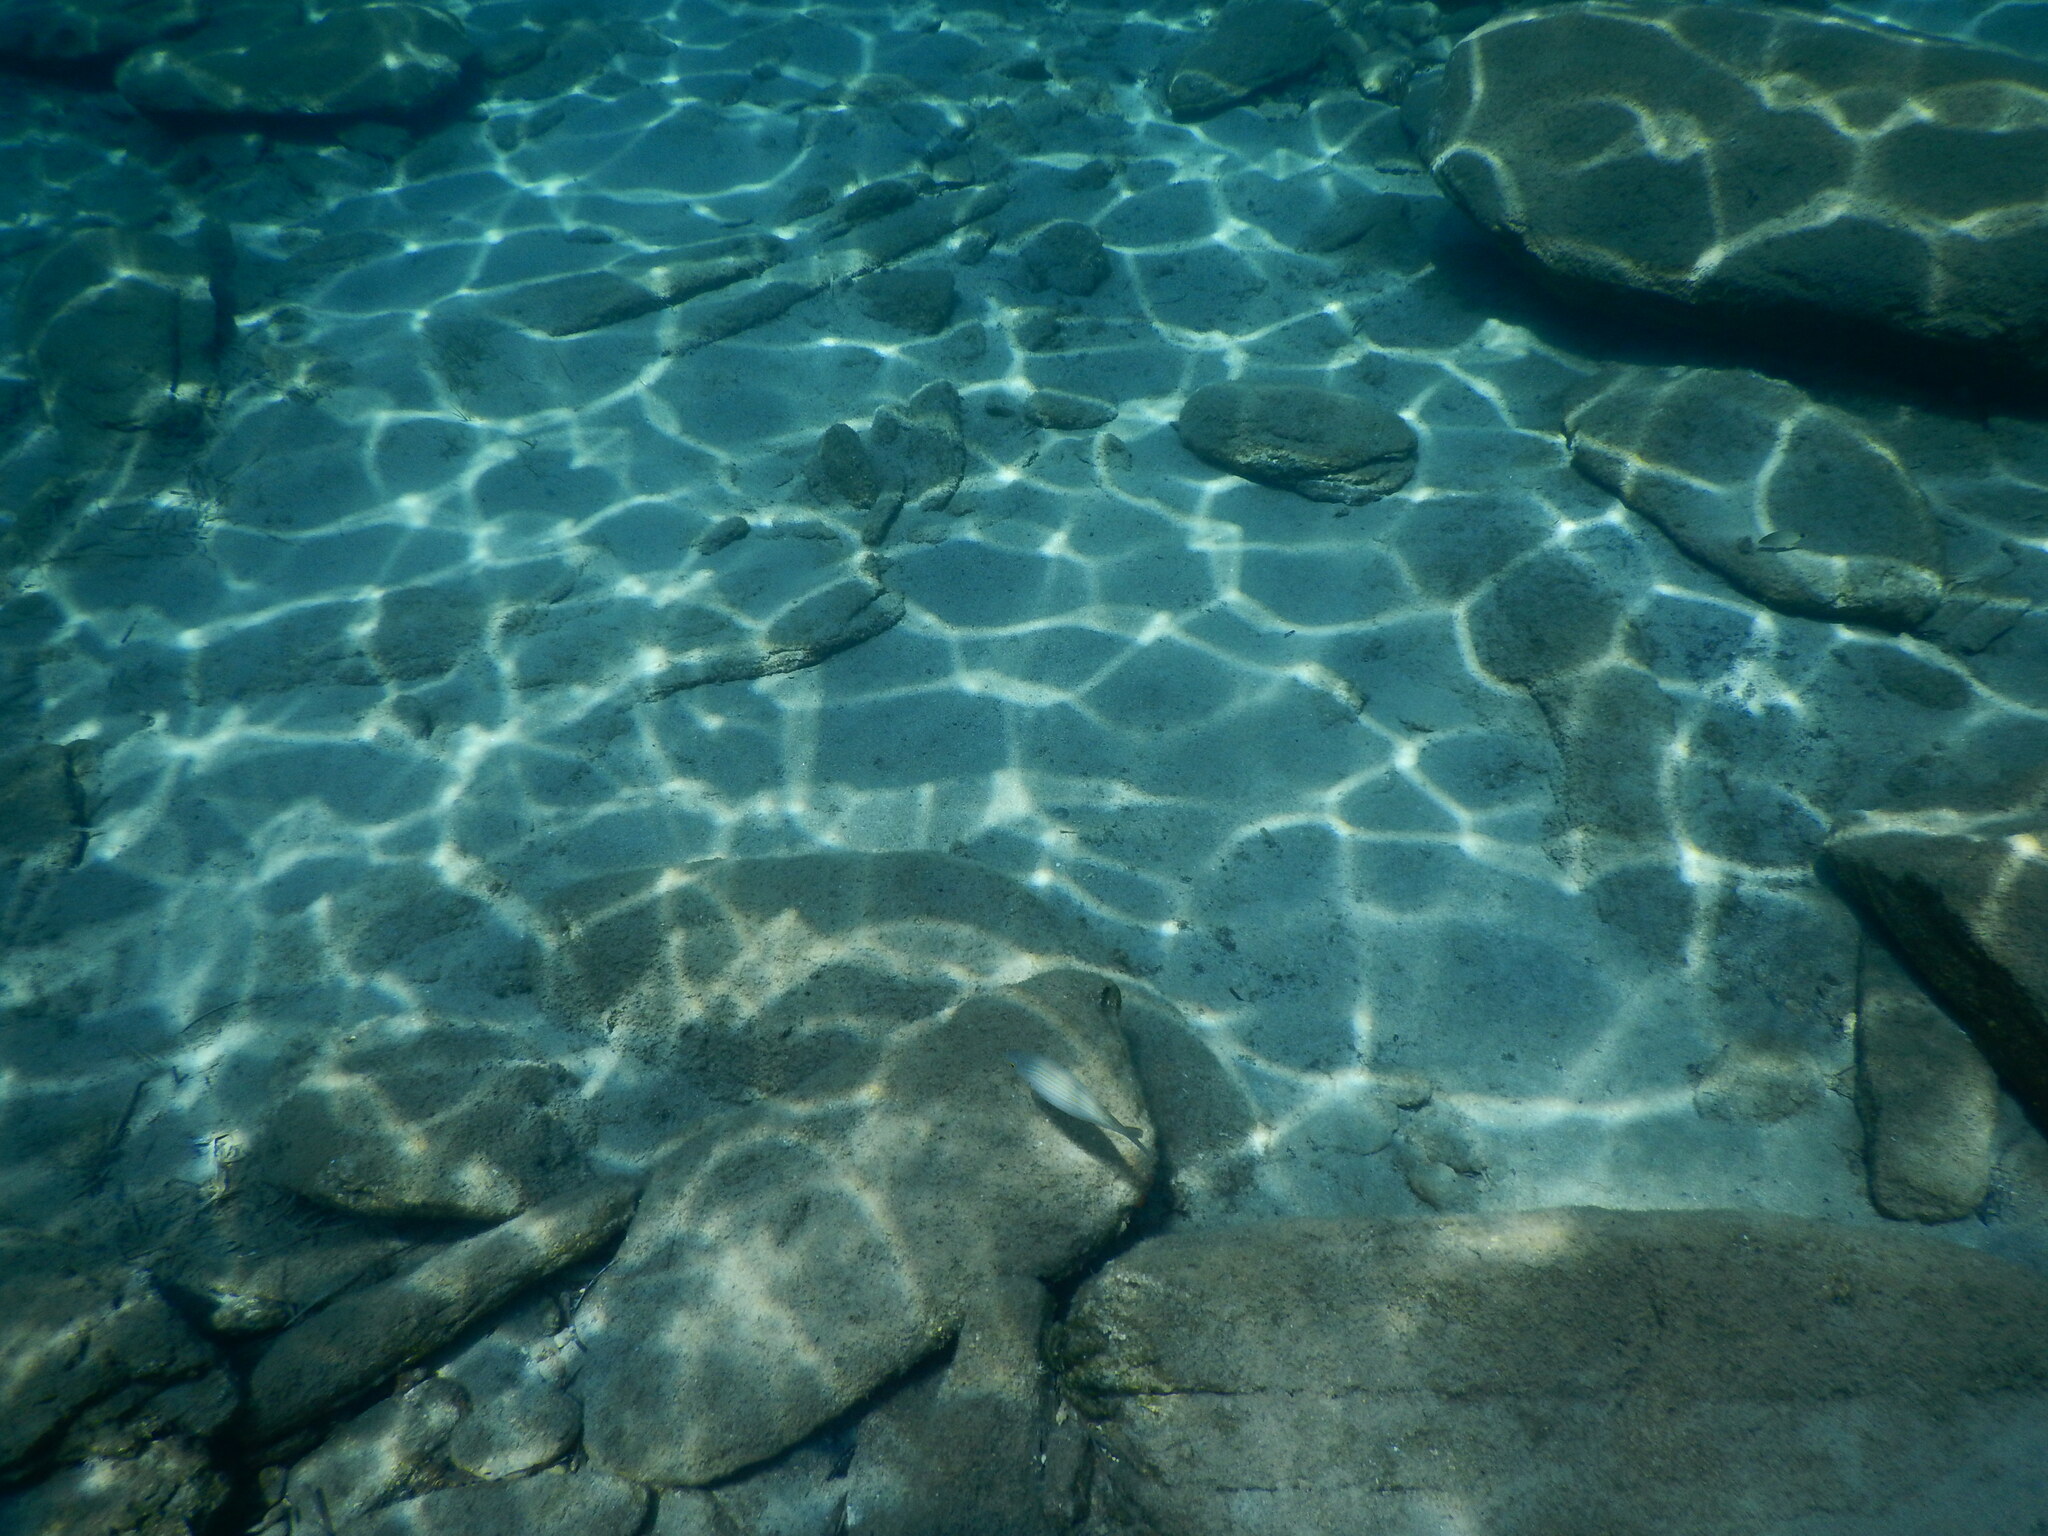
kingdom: Animalia
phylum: Chordata
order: Perciformes
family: Sparidae
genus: Sarpa
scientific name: Sarpa salpa
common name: Salema
